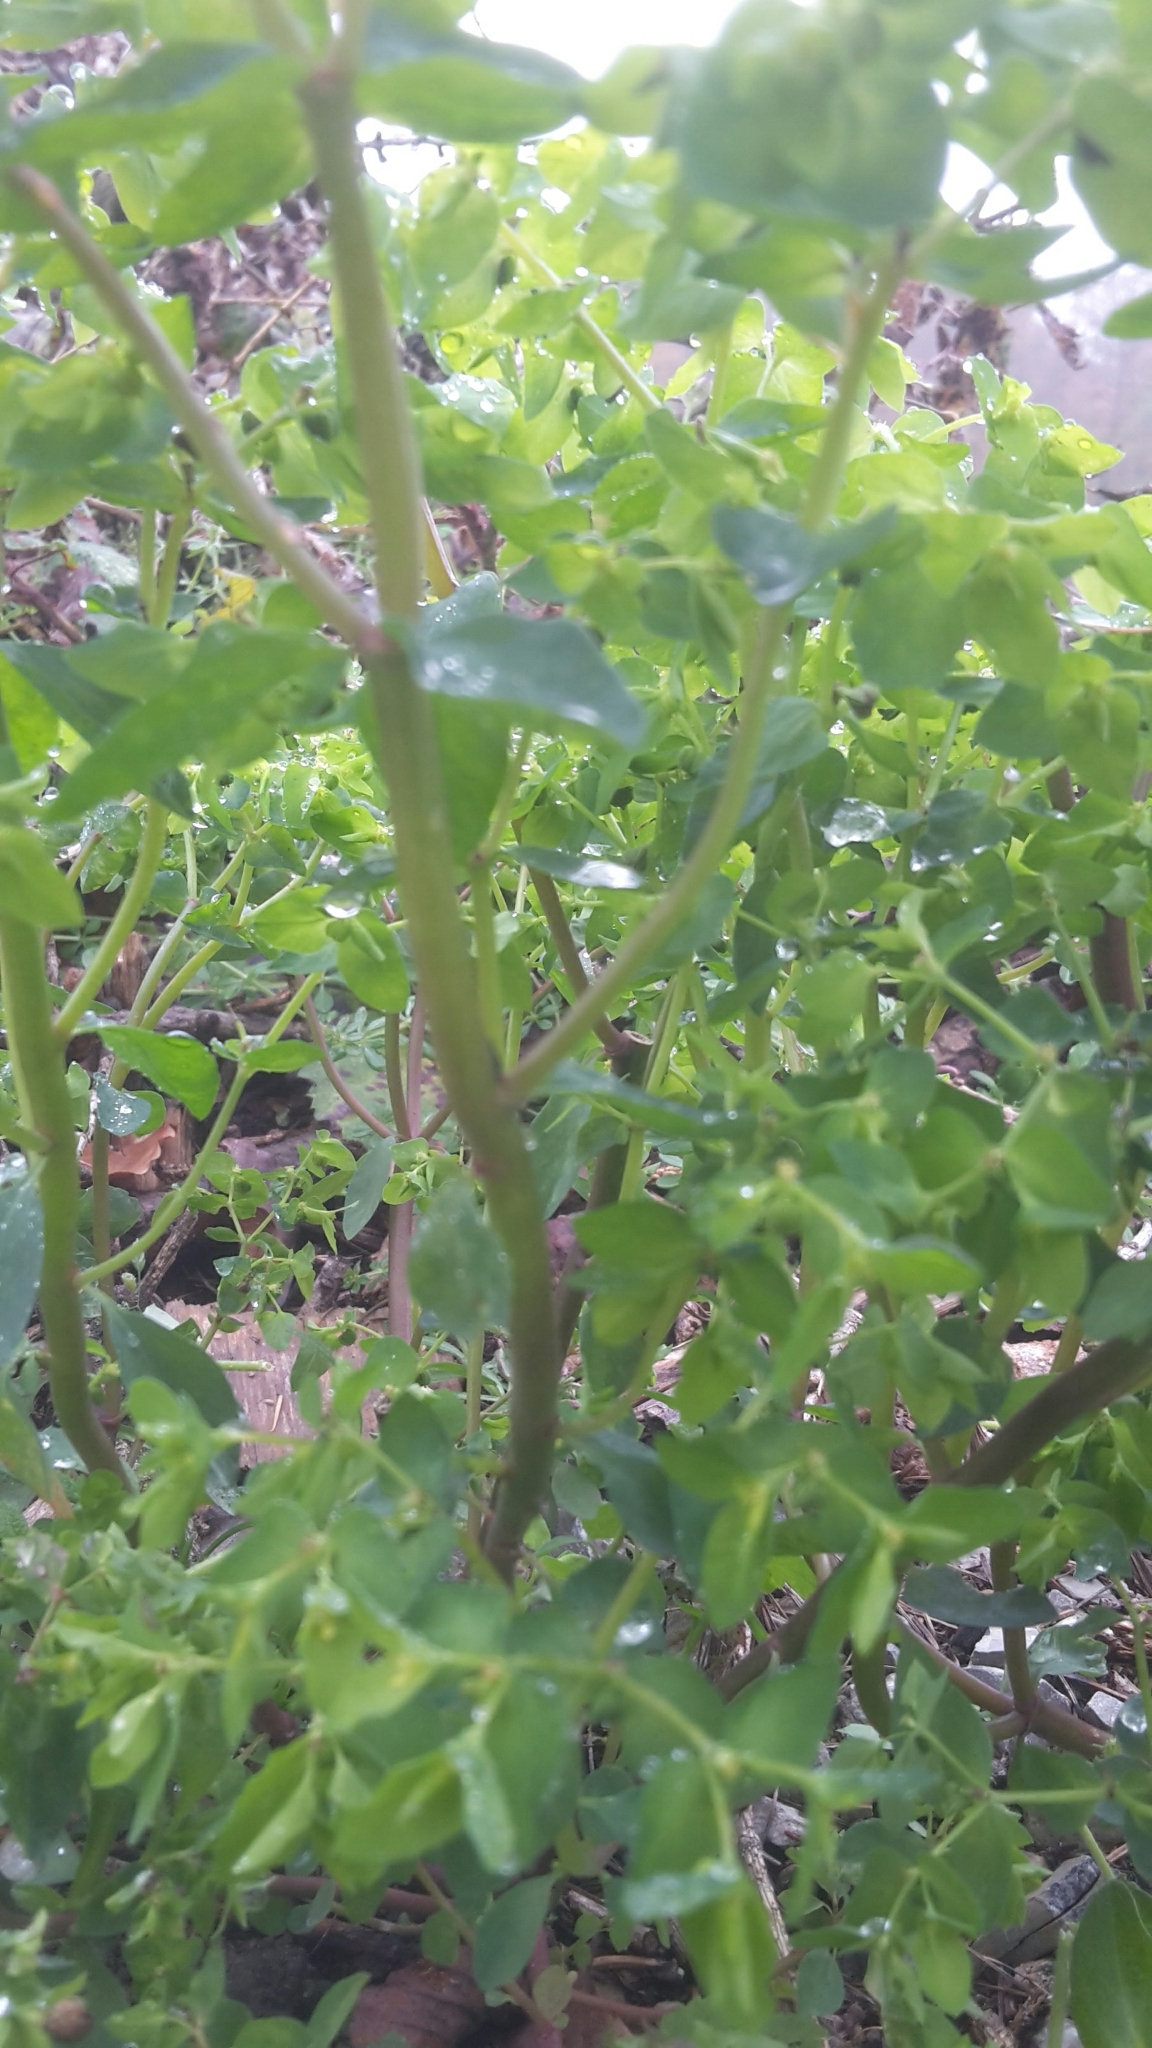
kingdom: Plantae
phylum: Tracheophyta
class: Magnoliopsida
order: Malpighiales
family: Euphorbiaceae
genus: Euphorbia
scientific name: Euphorbia peplus
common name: Petty spurge
